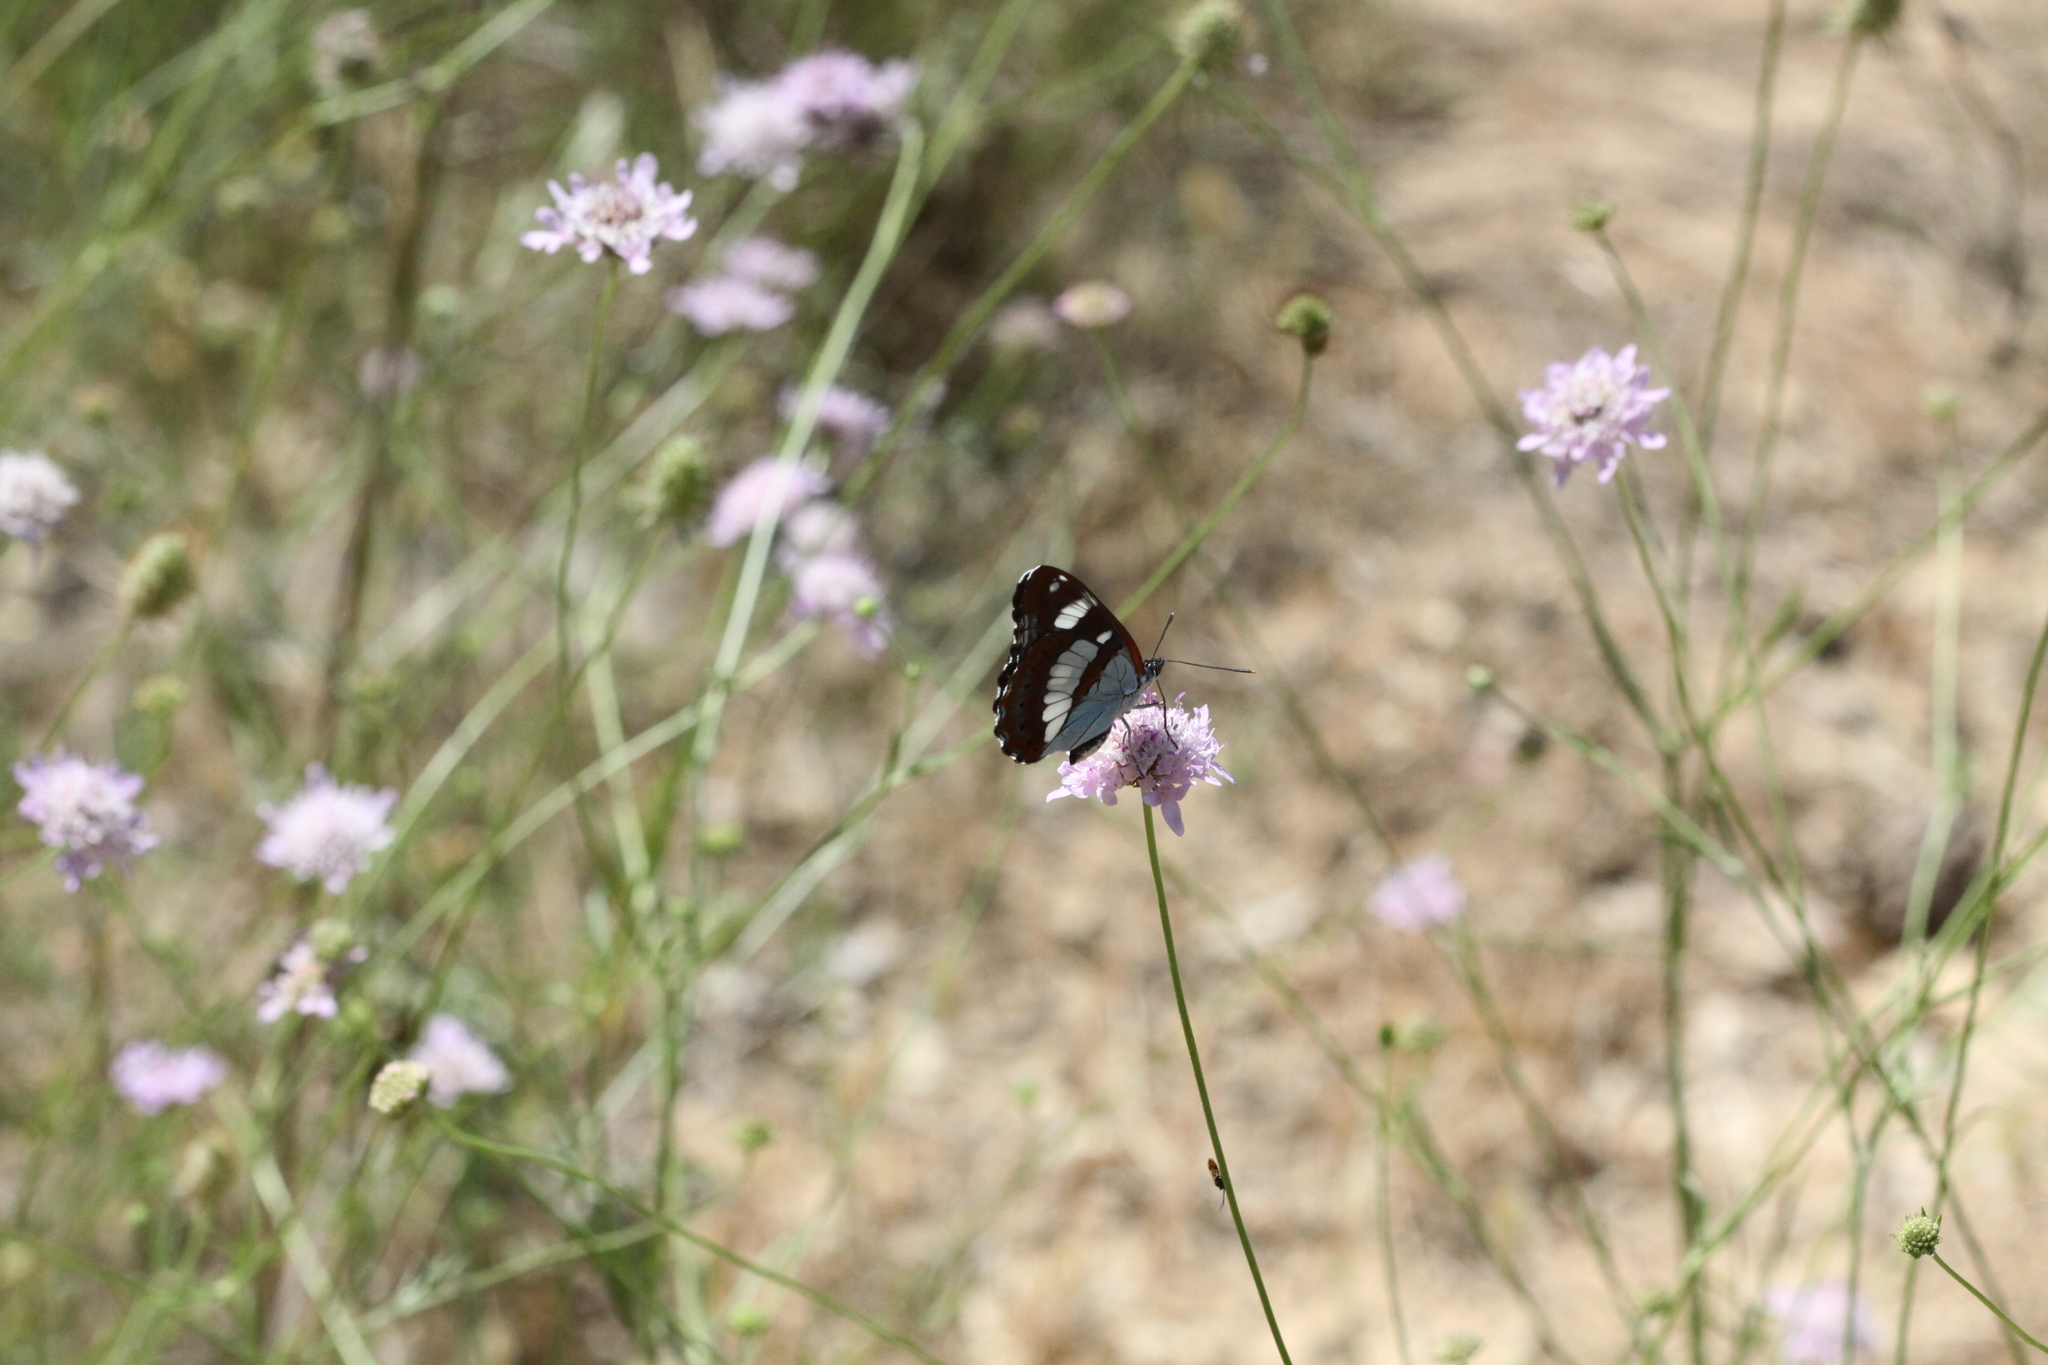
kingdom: Animalia
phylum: Arthropoda
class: Insecta
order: Lepidoptera
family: Nymphalidae
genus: Limenitis
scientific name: Limenitis reducta
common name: Southern white admiral
